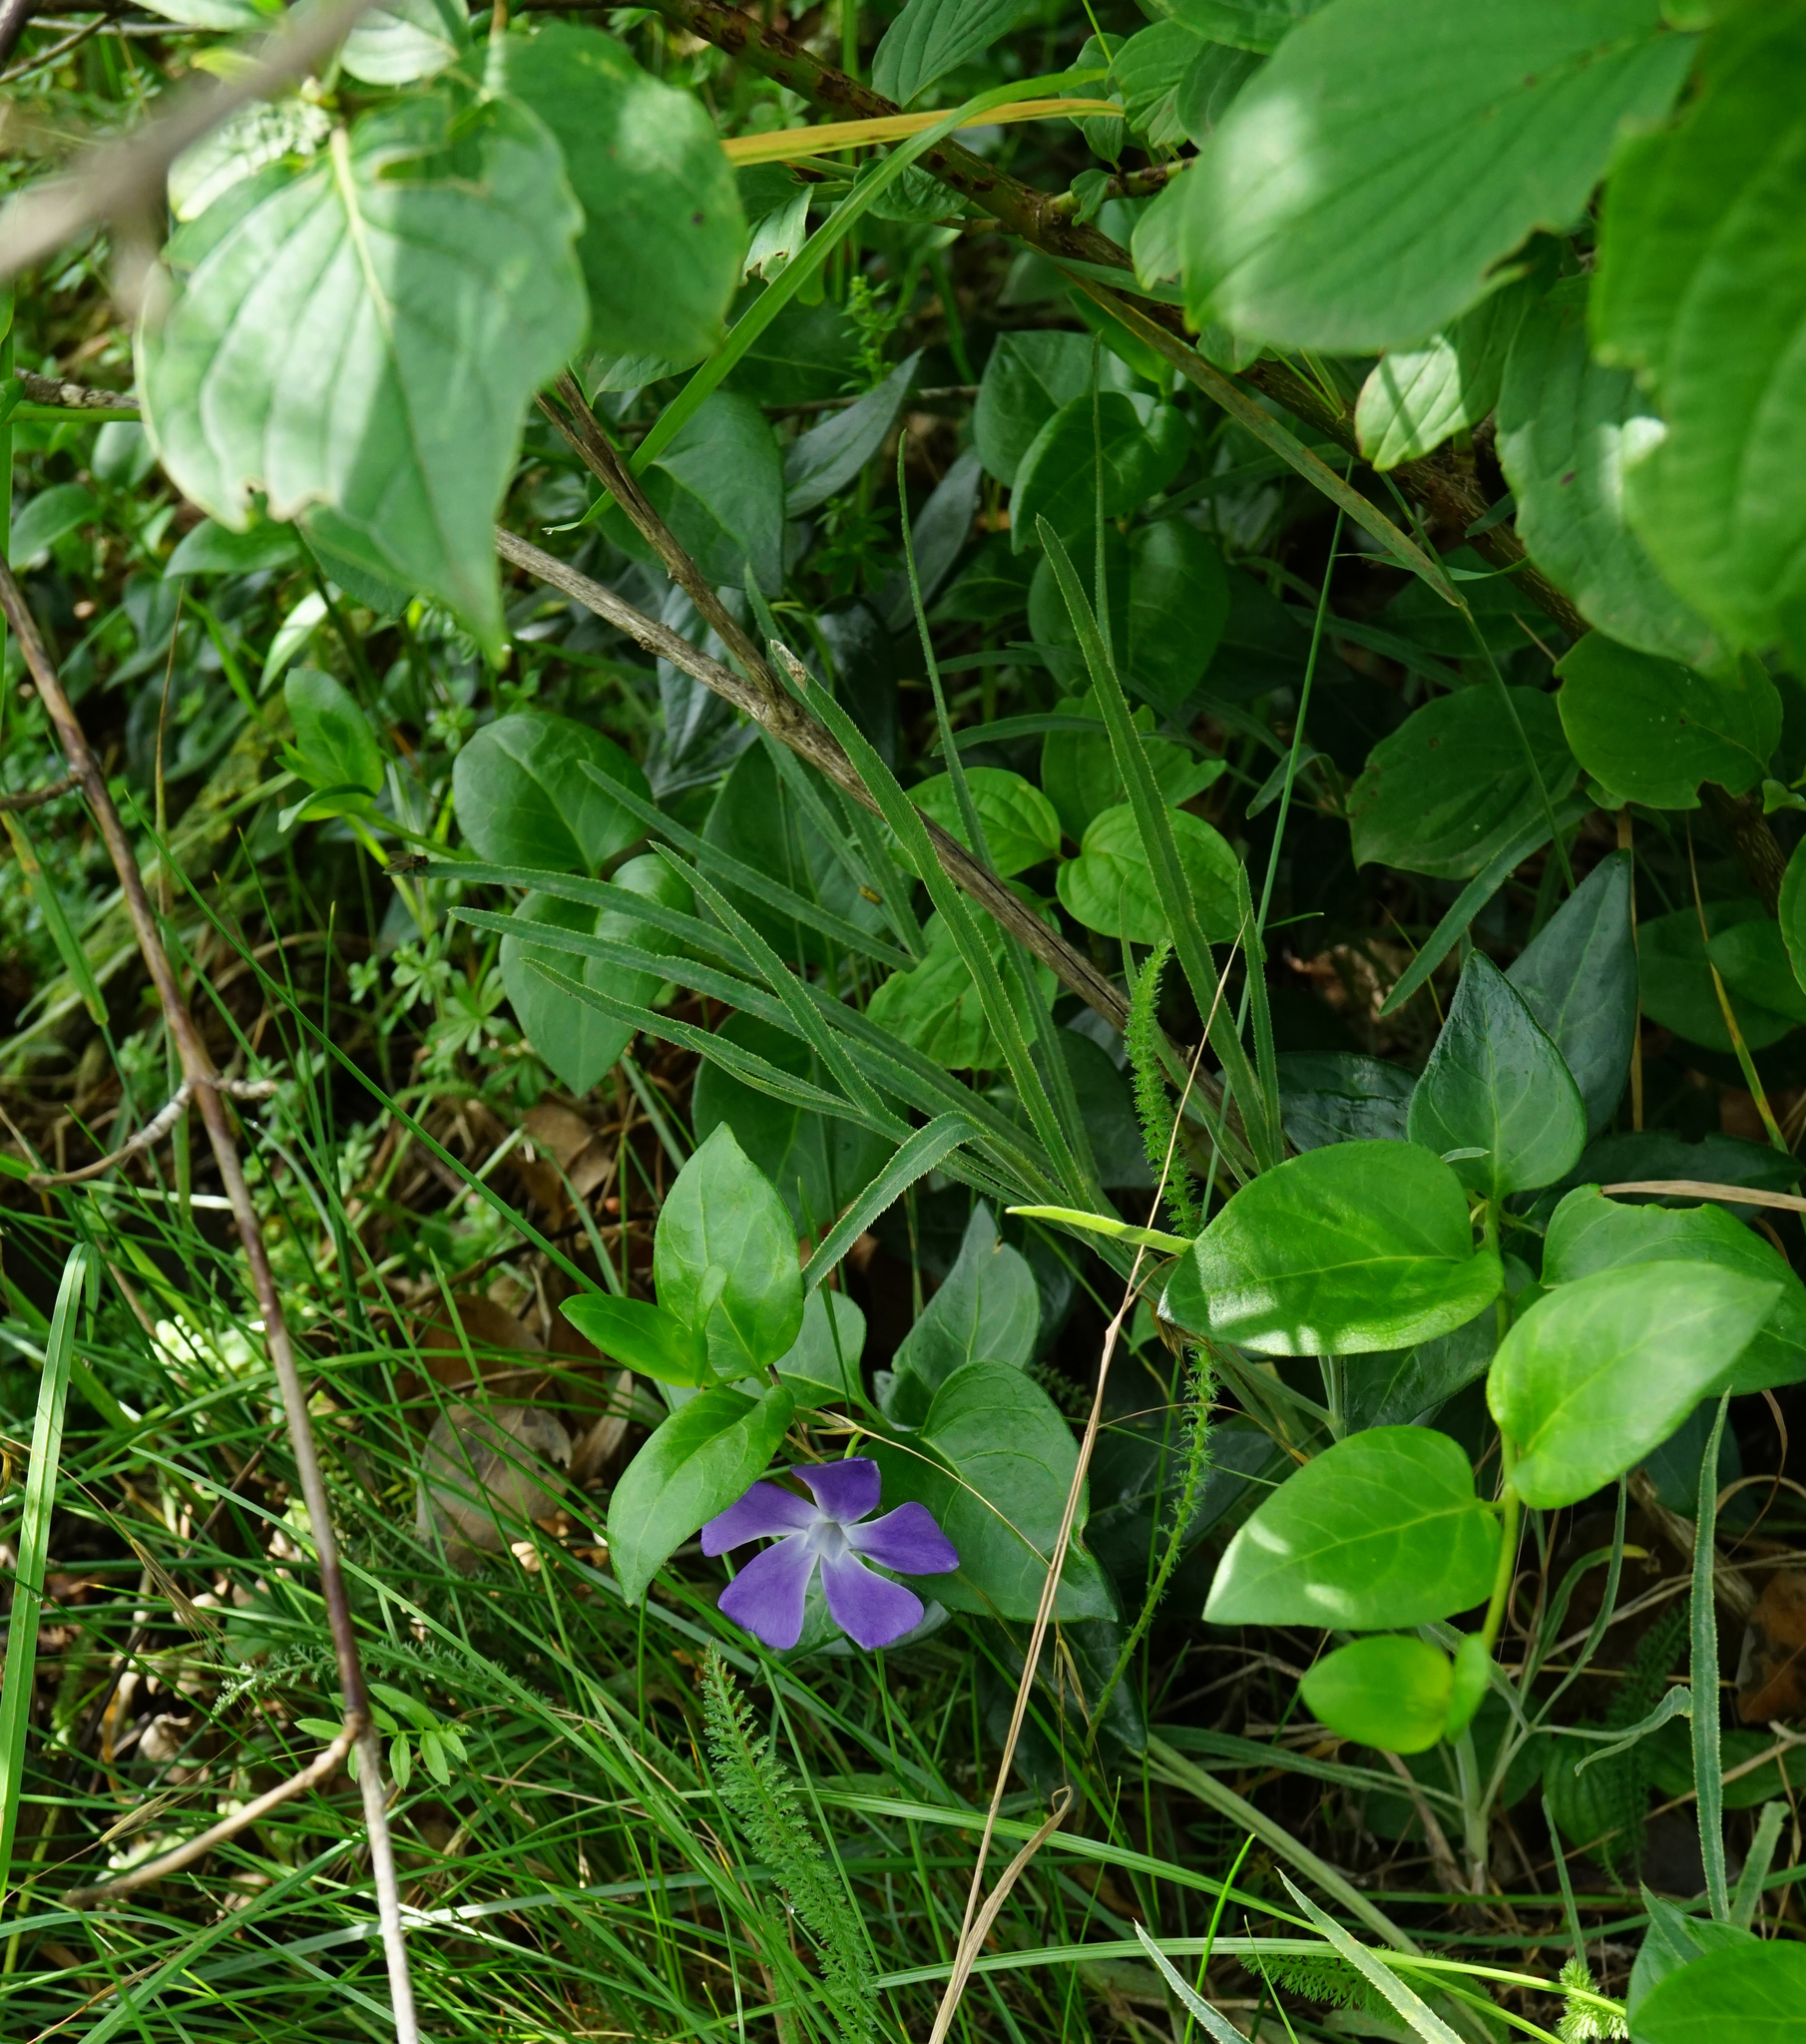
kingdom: Plantae
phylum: Tracheophyta
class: Magnoliopsida
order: Apiales
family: Apiaceae
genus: Falcaria
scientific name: Falcaria vulgaris
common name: Longleaf
